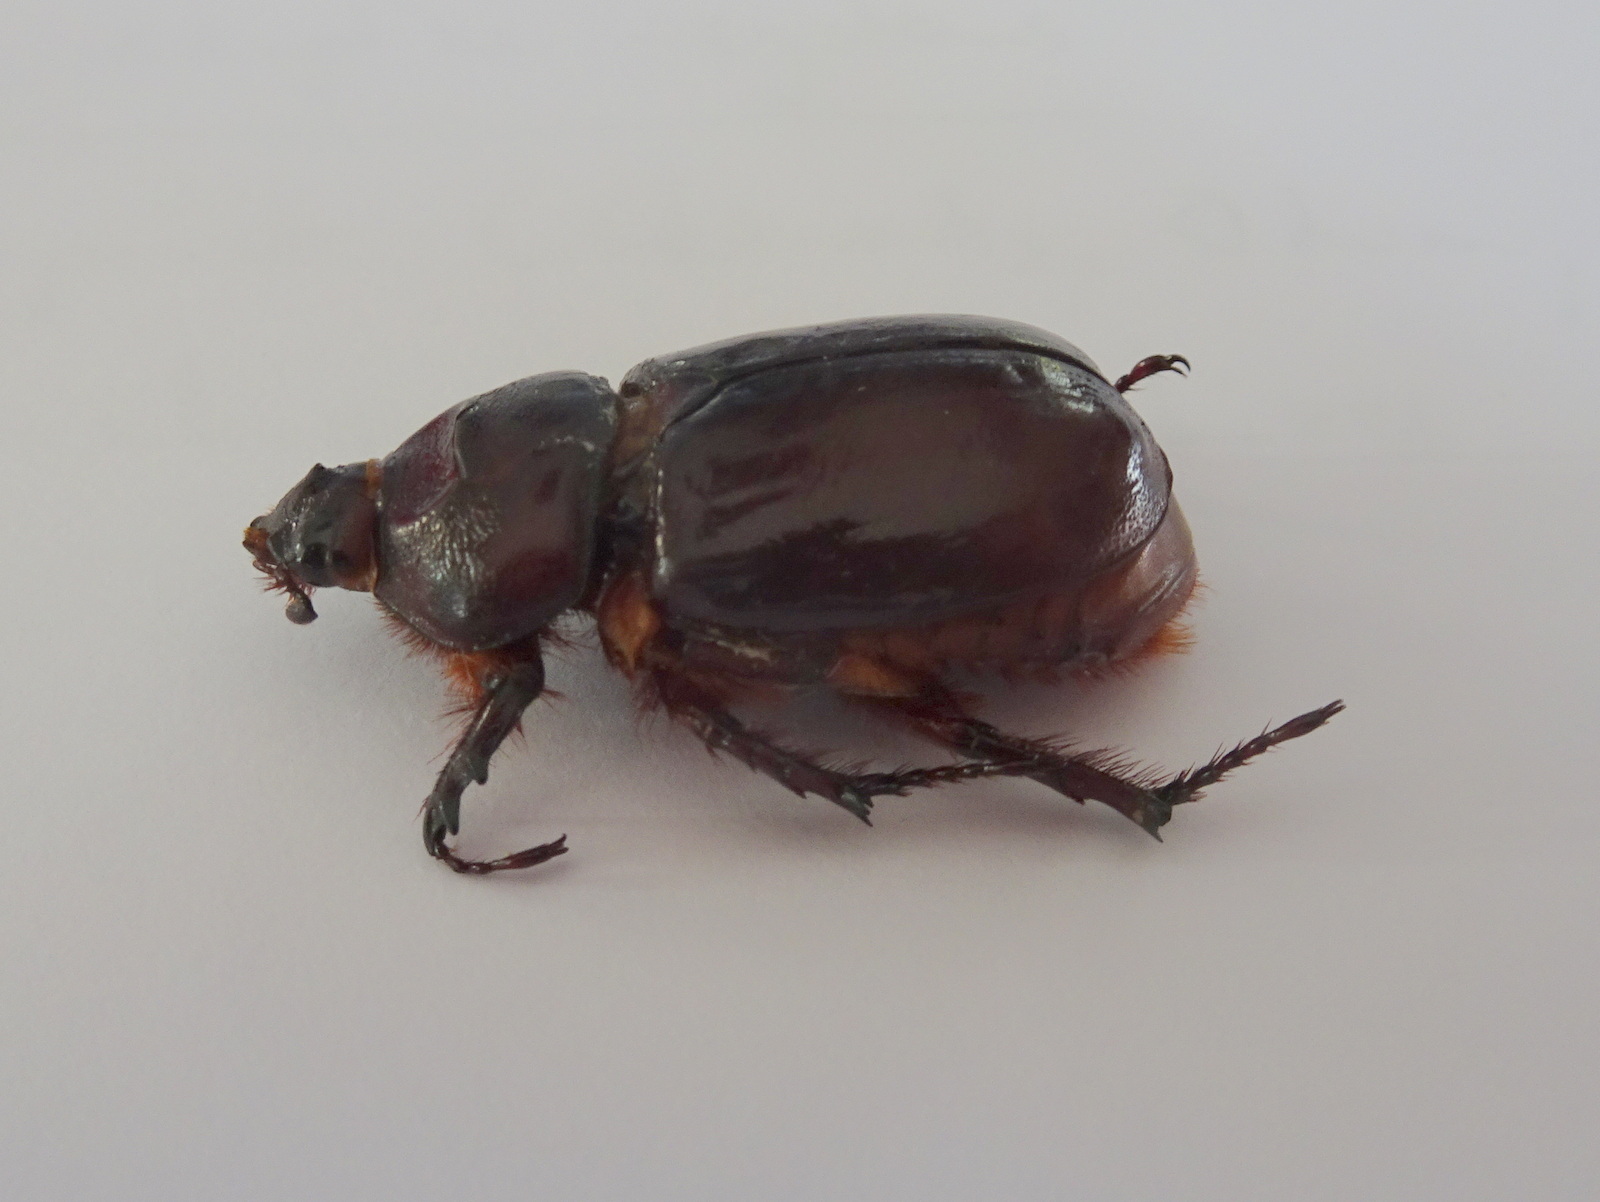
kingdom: Animalia
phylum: Arthropoda
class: Insecta
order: Coleoptera
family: Scarabaeidae
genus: Oryctes
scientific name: Oryctes nasicornis
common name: European rhinoceros beetle
